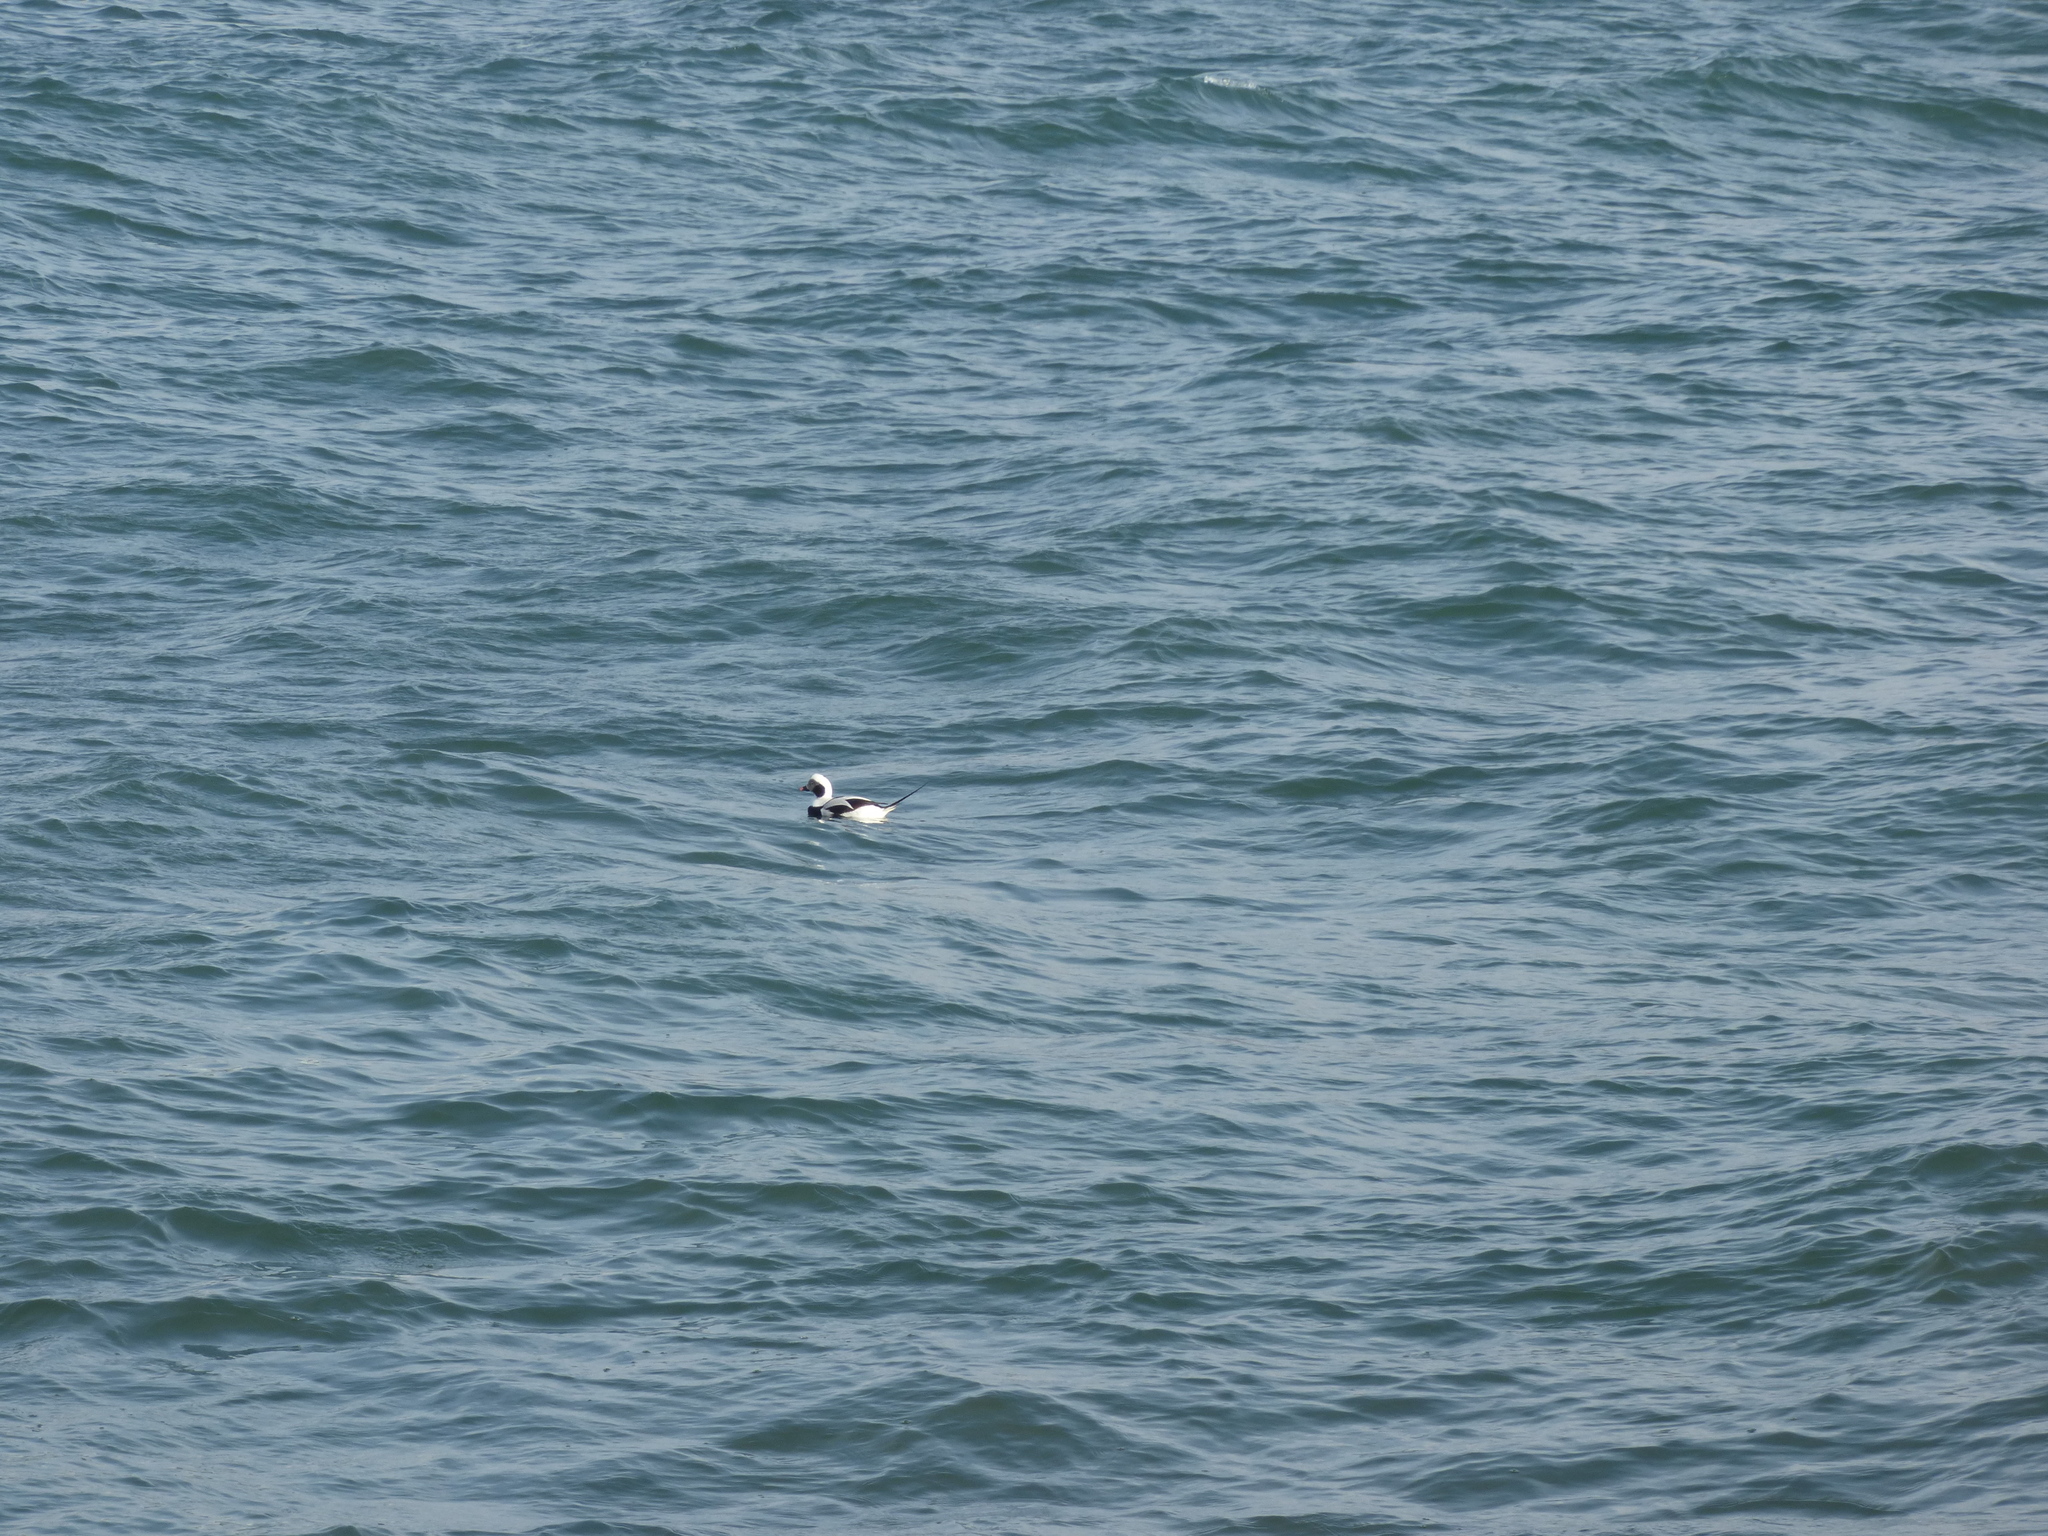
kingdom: Animalia
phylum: Chordata
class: Aves
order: Anseriformes
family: Anatidae
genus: Clangula
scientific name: Clangula hyemalis
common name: Long-tailed duck
